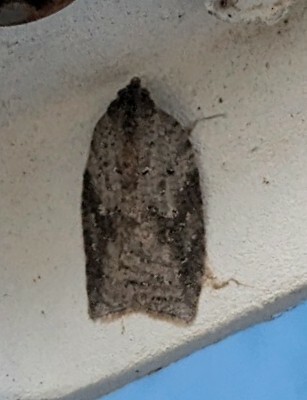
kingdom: Animalia
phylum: Arthropoda
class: Insecta
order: Lepidoptera
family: Tortricidae
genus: Amorbia
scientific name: Amorbia humerosana
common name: White-lined leafroller moth
